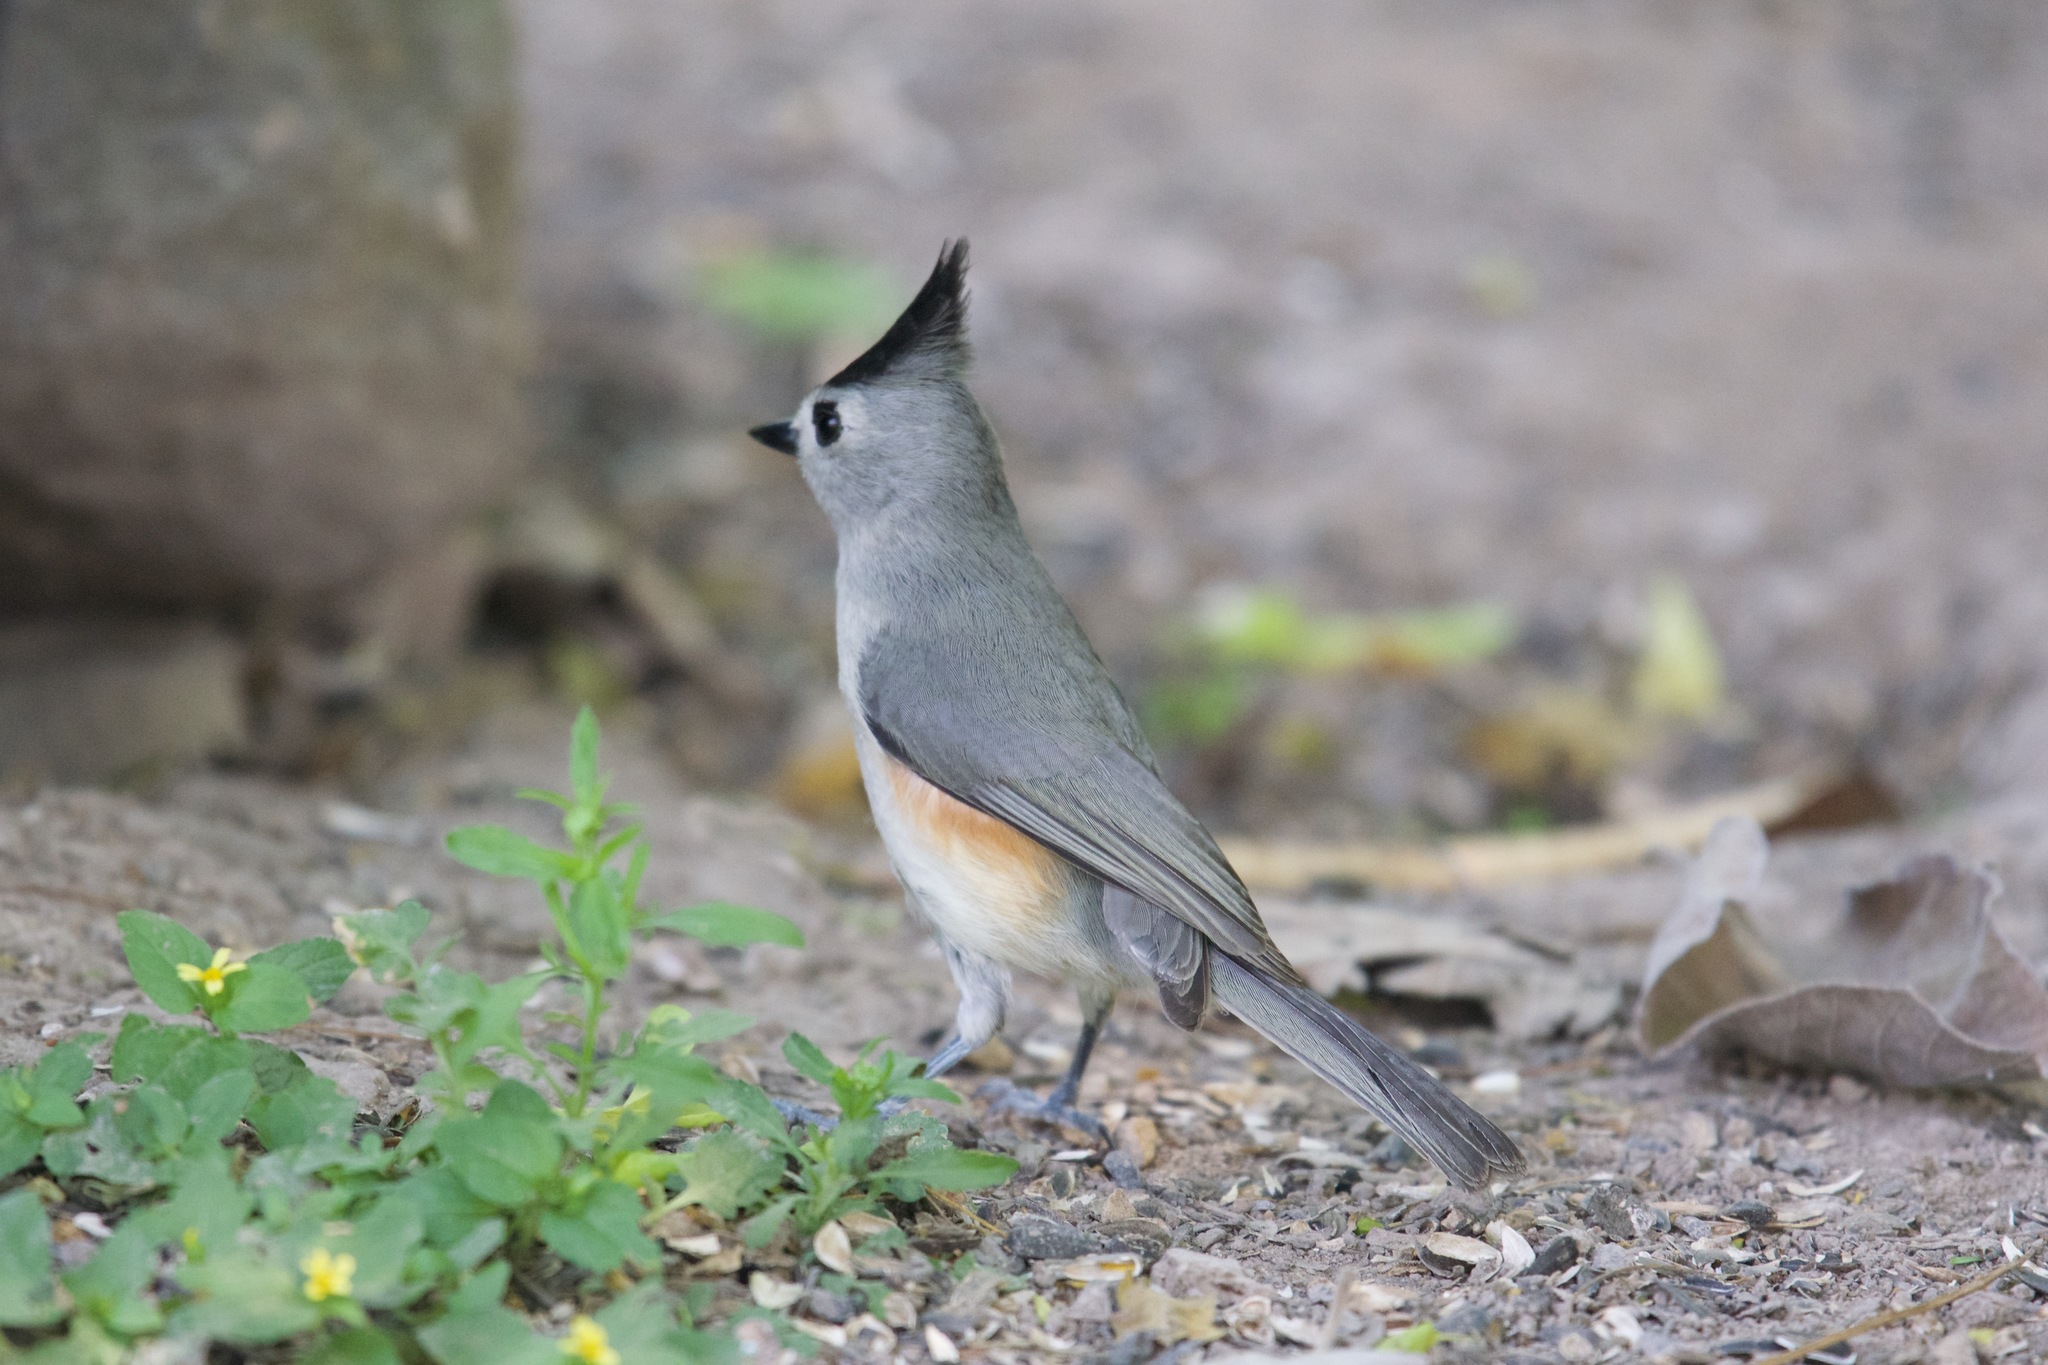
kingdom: Animalia
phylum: Chordata
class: Aves
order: Passeriformes
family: Paridae
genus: Baeolophus
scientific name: Baeolophus atricristatus
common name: Black-crested titmouse
